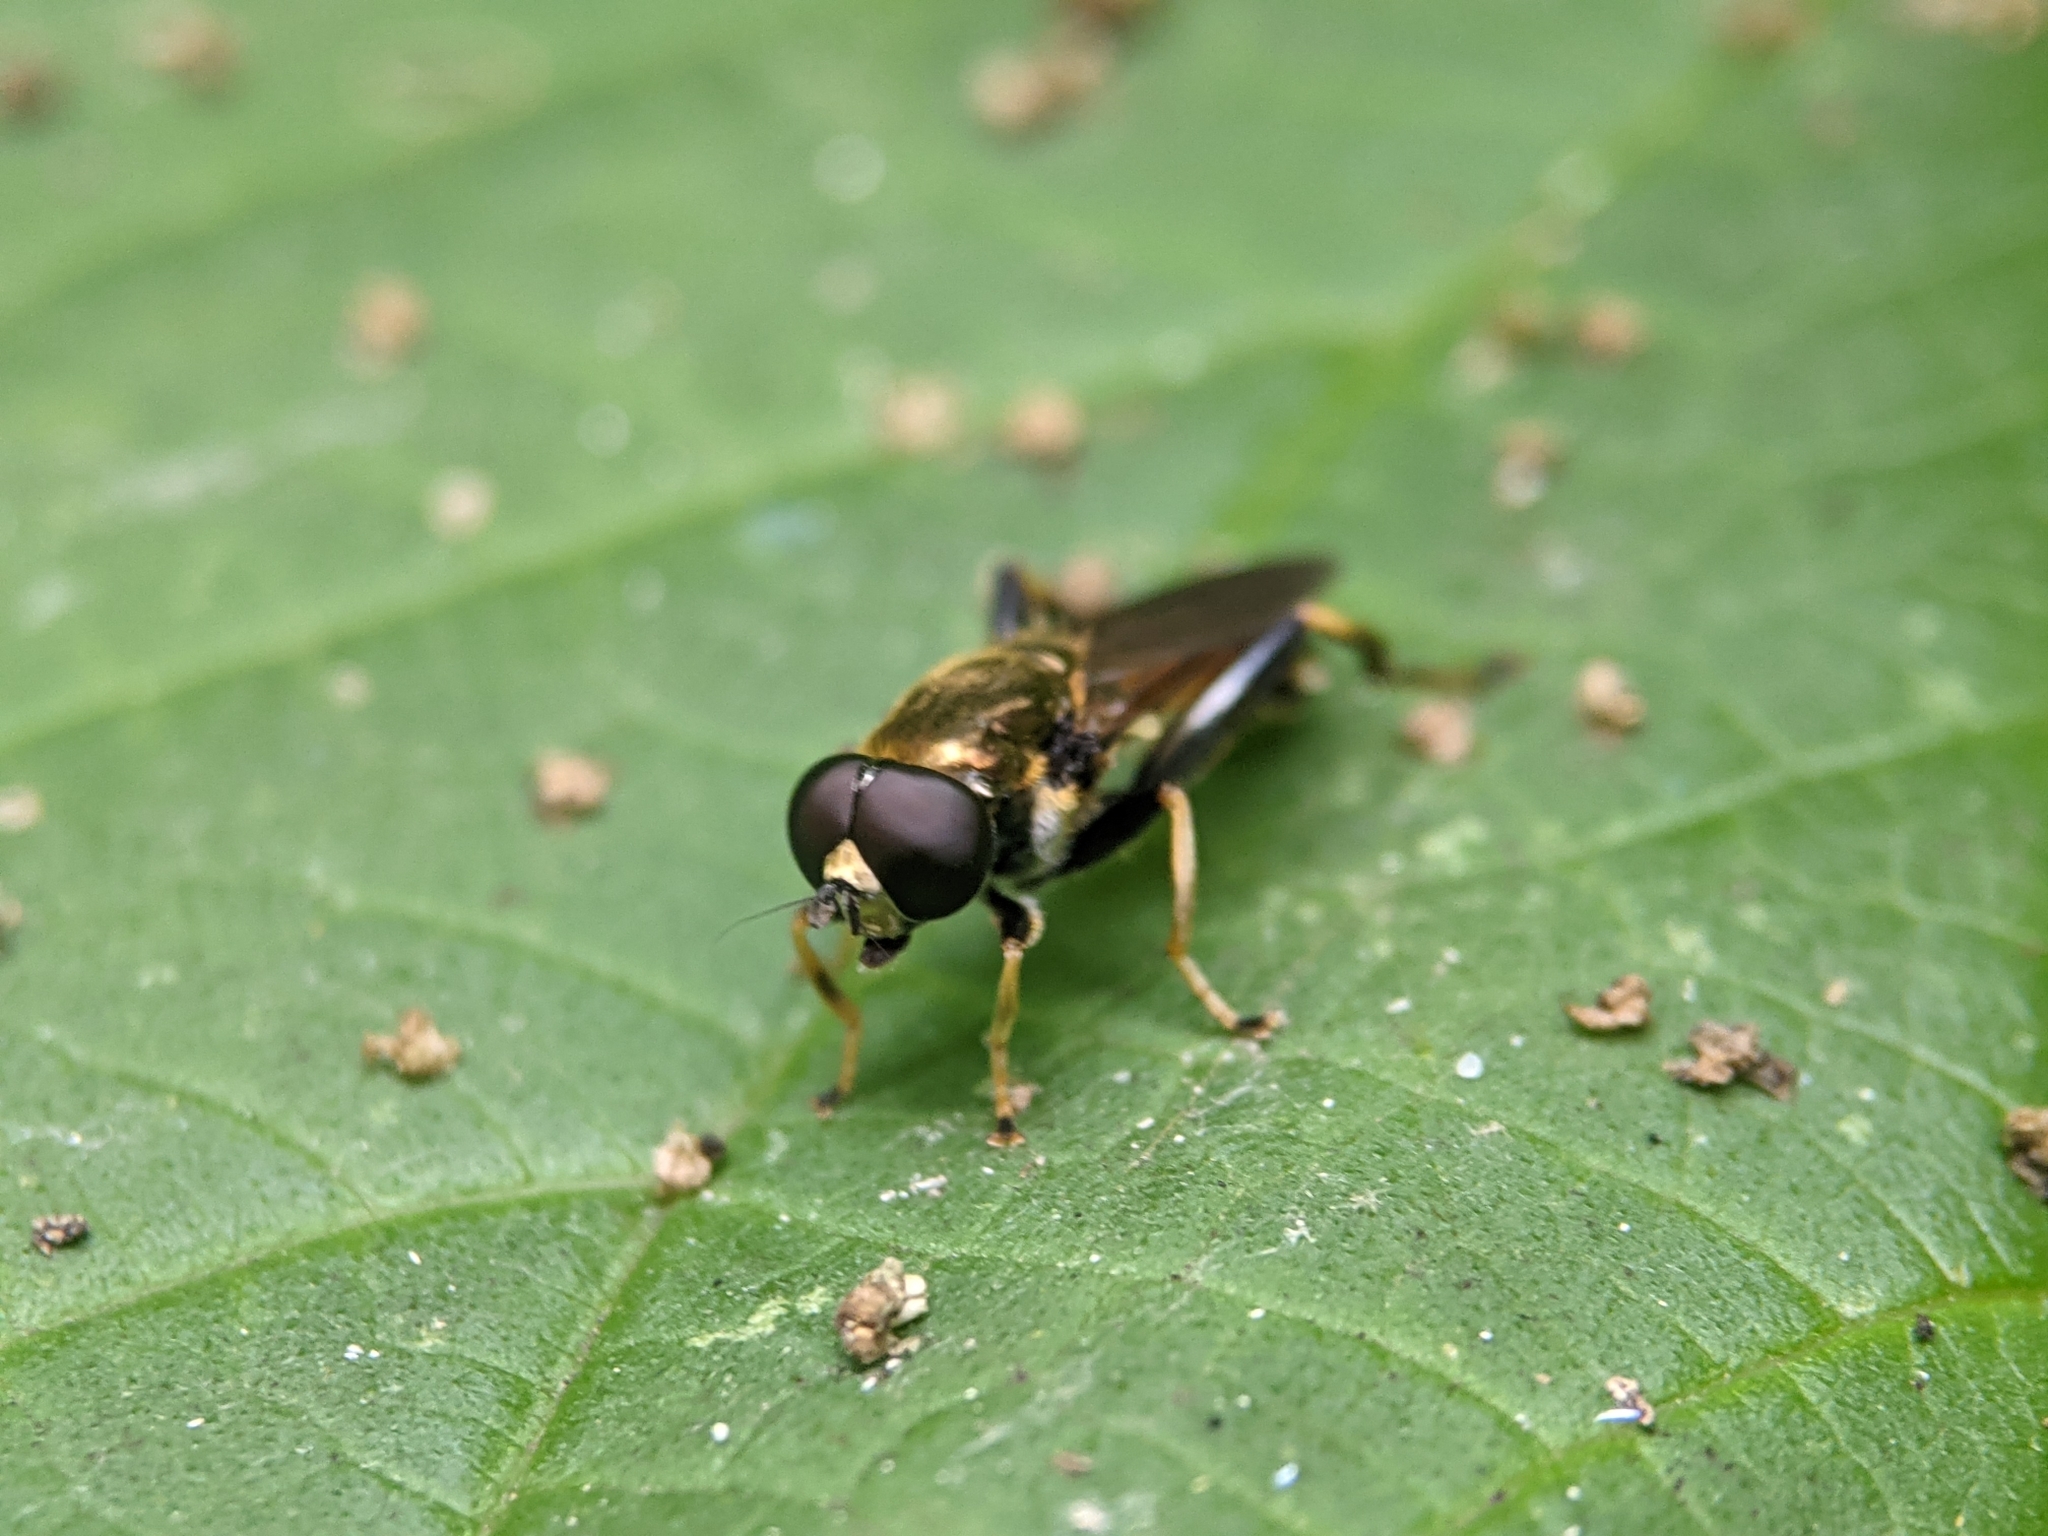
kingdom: Animalia
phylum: Arthropoda
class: Insecta
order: Diptera
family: Syrphidae
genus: Xylota
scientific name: Xylota segnis
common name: Brown-toed forest fly
